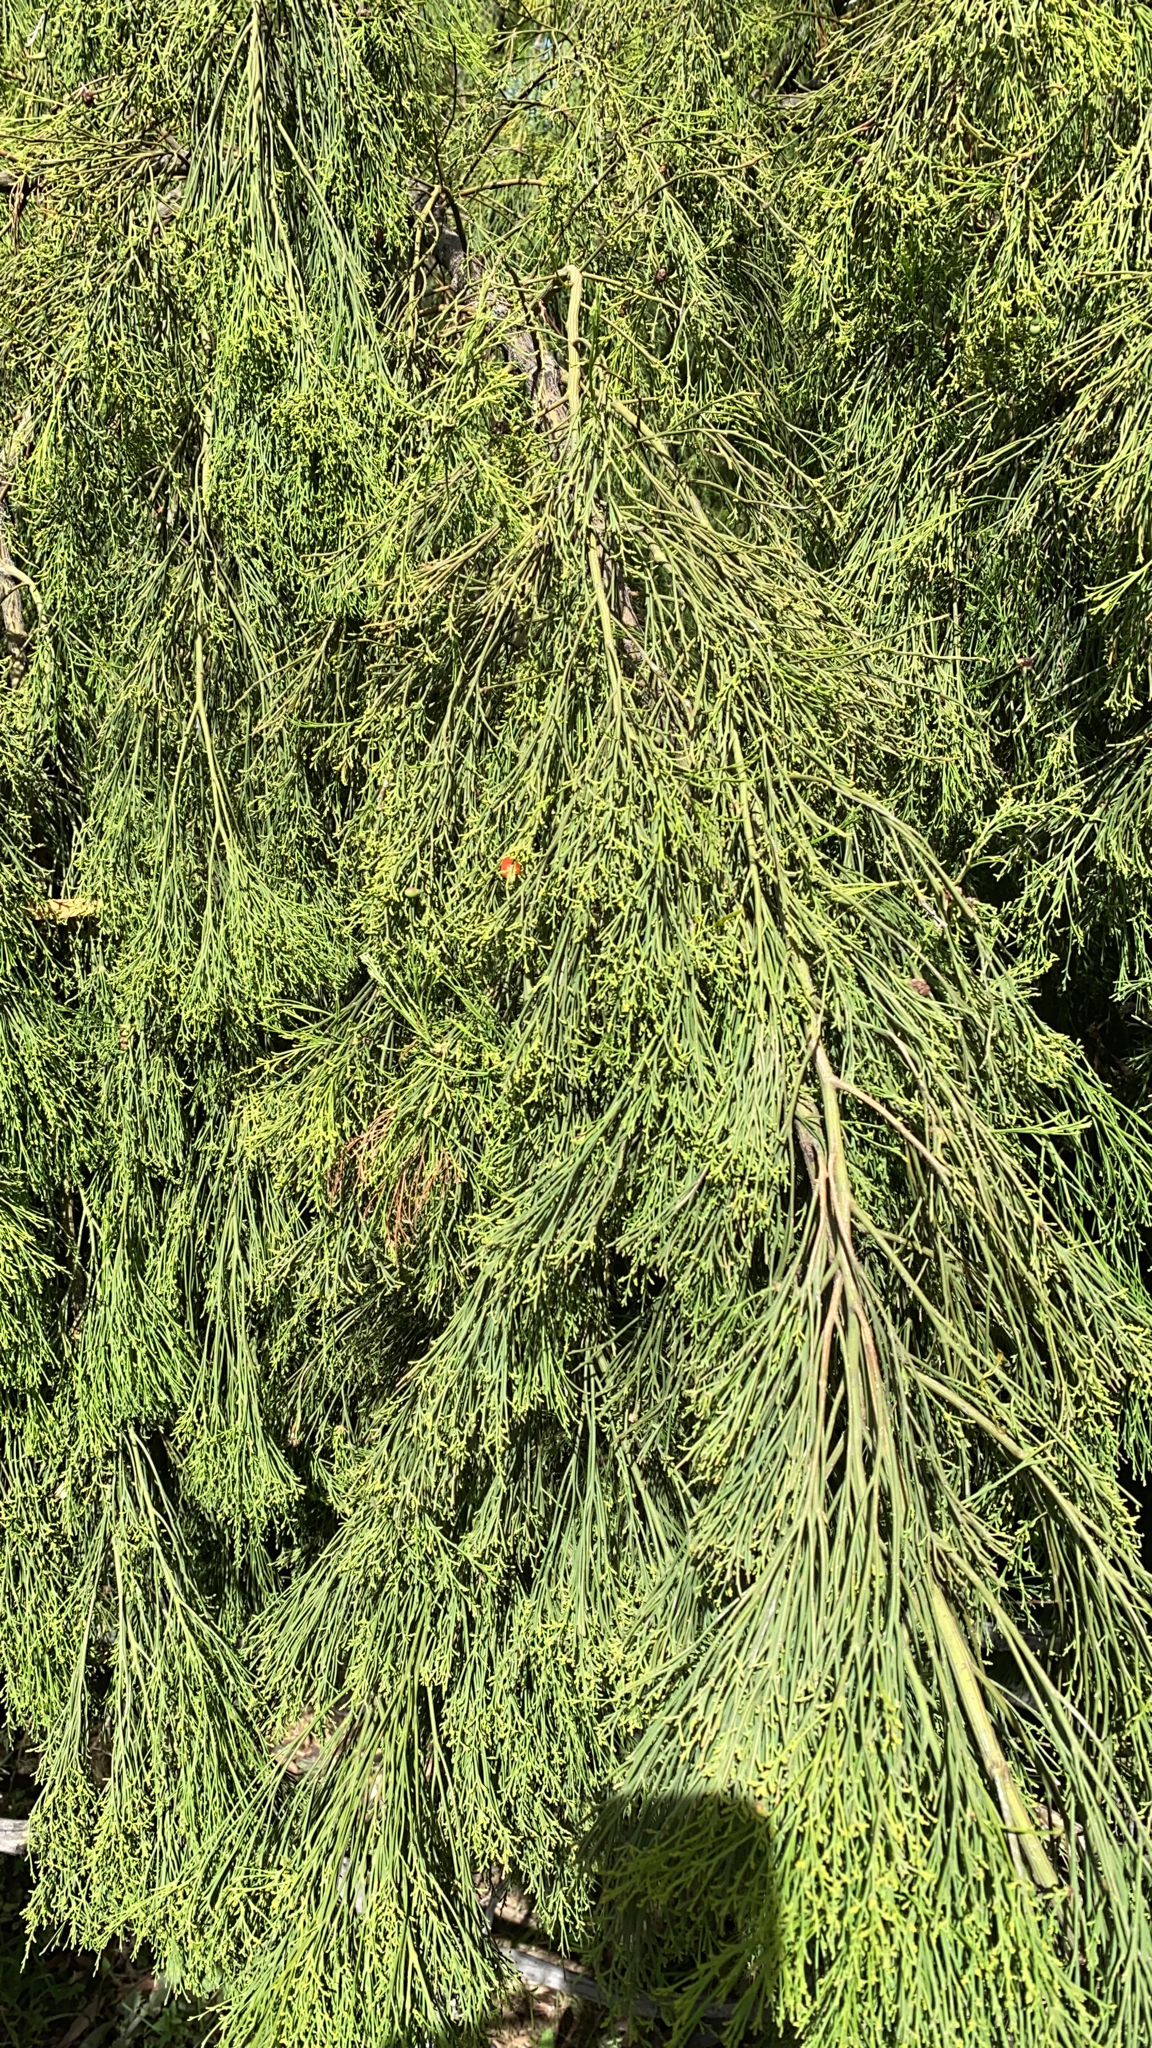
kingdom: Plantae
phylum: Tracheophyta
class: Magnoliopsida
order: Santalales
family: Santalaceae
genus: Exocarpos
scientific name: Exocarpos cupressiformis
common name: Cherry ballart
